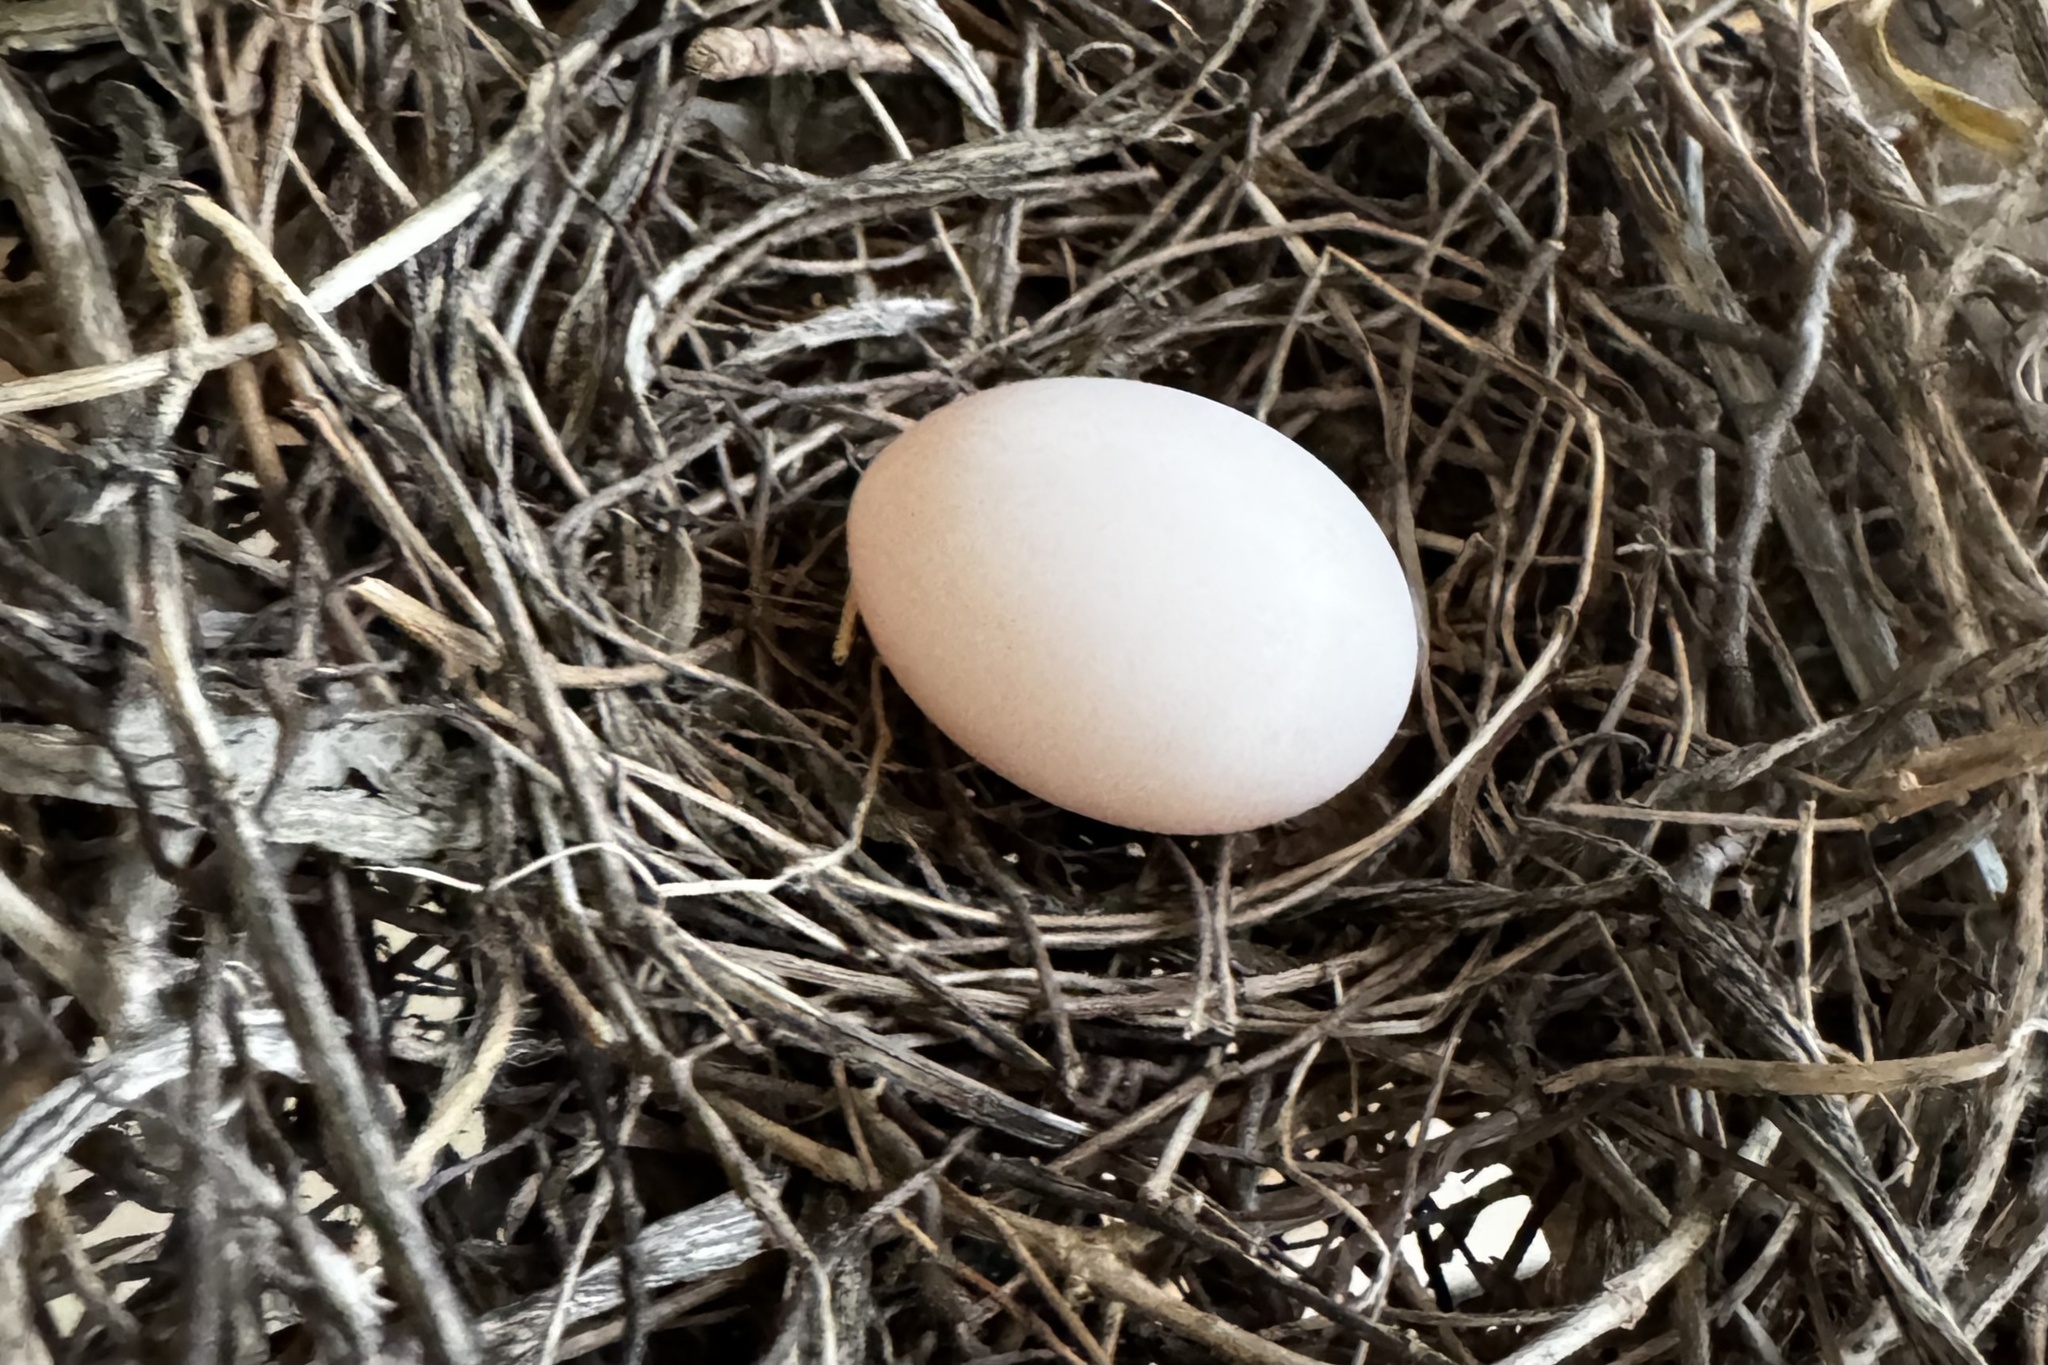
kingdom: Animalia
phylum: Chordata
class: Aves
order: Columbiformes
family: Columbidae
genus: Zenaida
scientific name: Zenaida macroura
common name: Mourning dove
